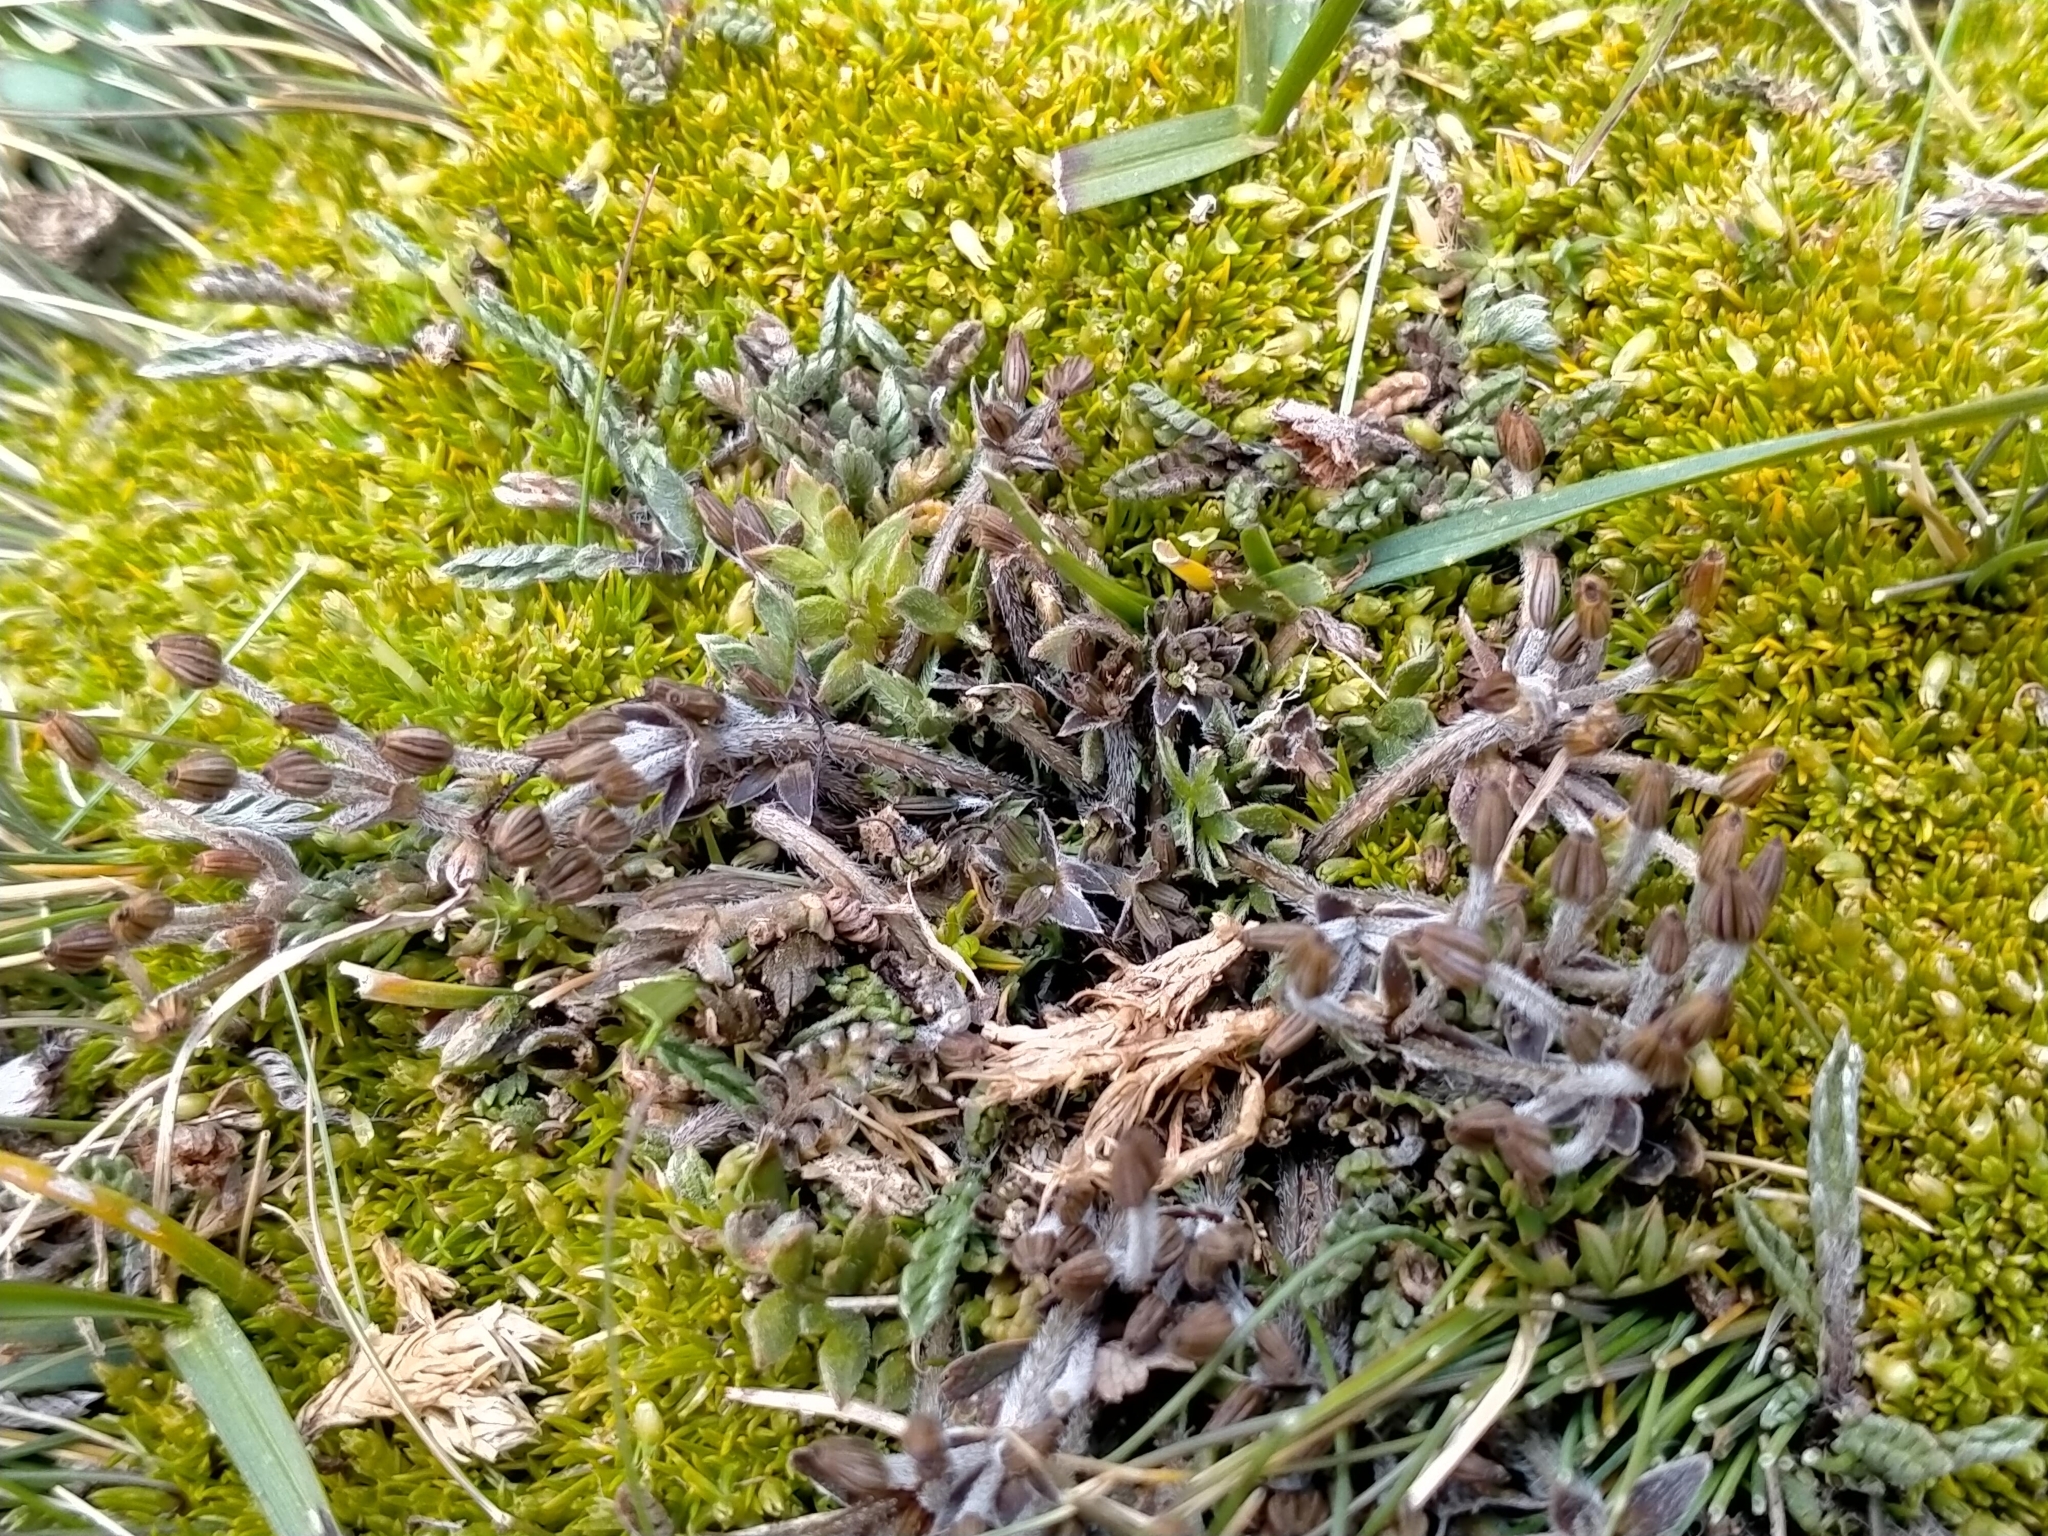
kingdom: Plantae
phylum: Tracheophyta
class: Magnoliopsida
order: Apiales
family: Apiaceae
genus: Chaerophyllum
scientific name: Chaerophyllum colensoi
